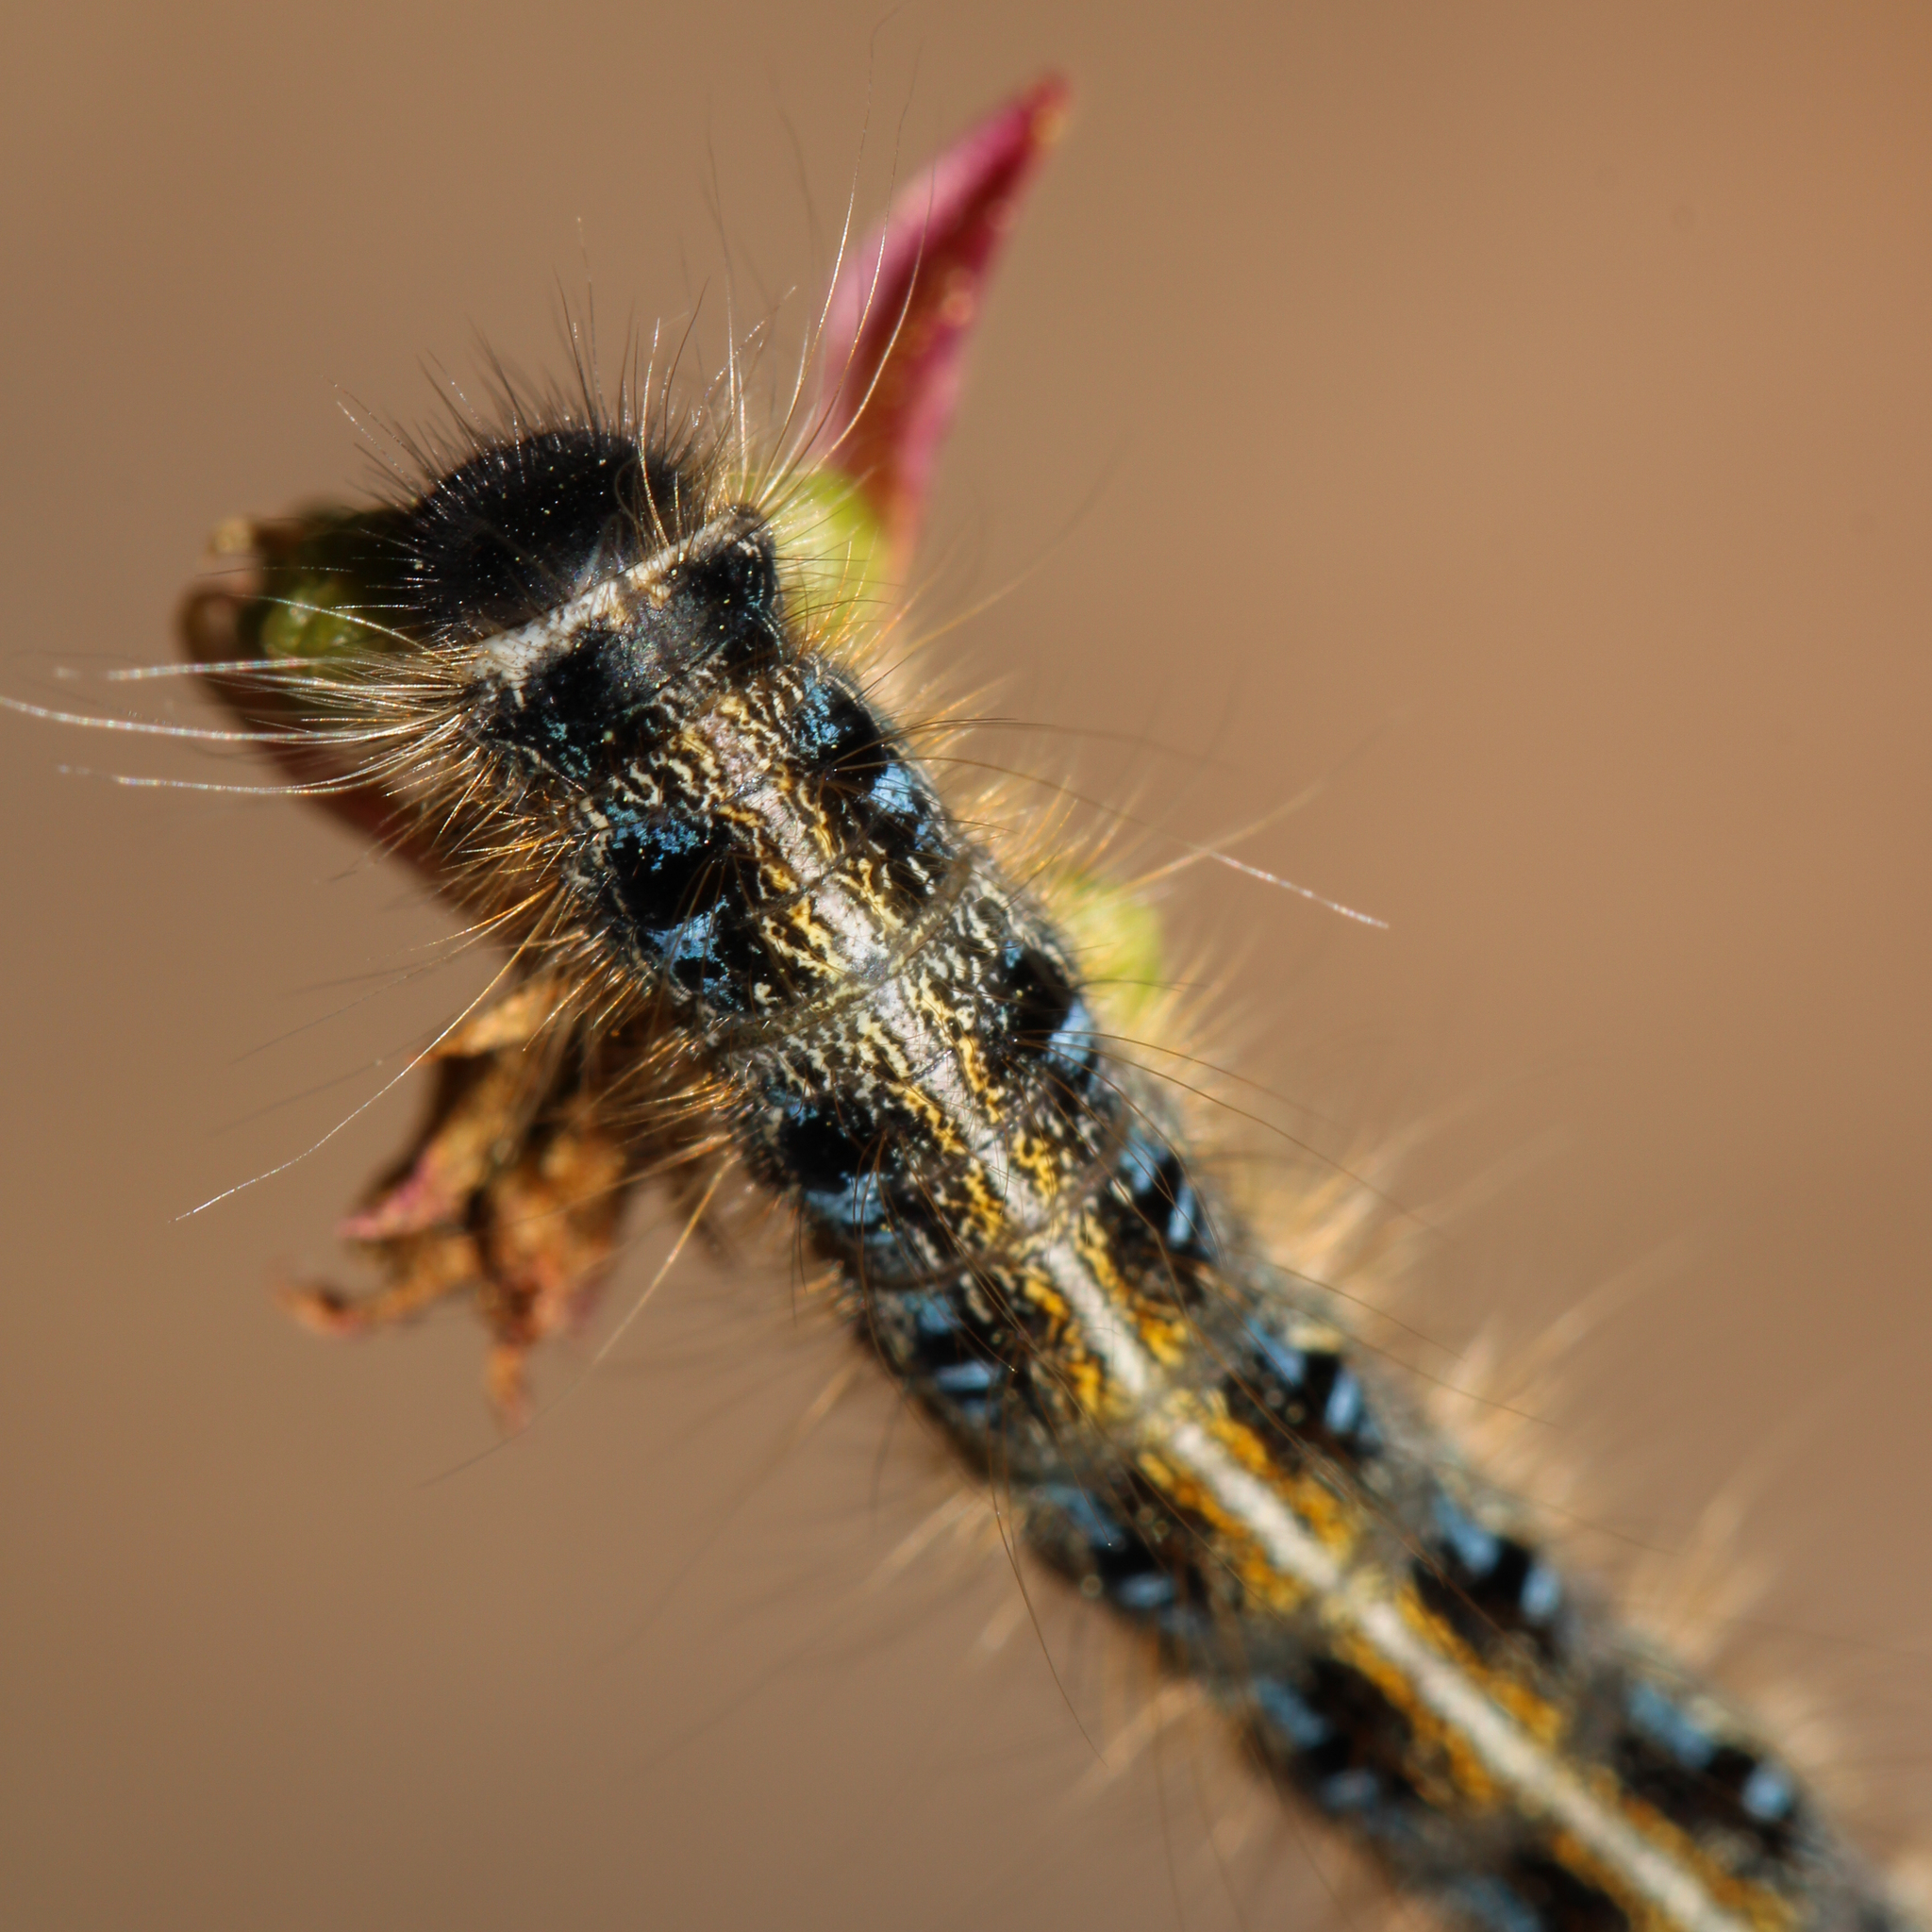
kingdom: Animalia
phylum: Arthropoda
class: Insecta
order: Lepidoptera
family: Lasiocampidae
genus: Malacosoma
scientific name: Malacosoma americana
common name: Eastern tent caterpillar moth
